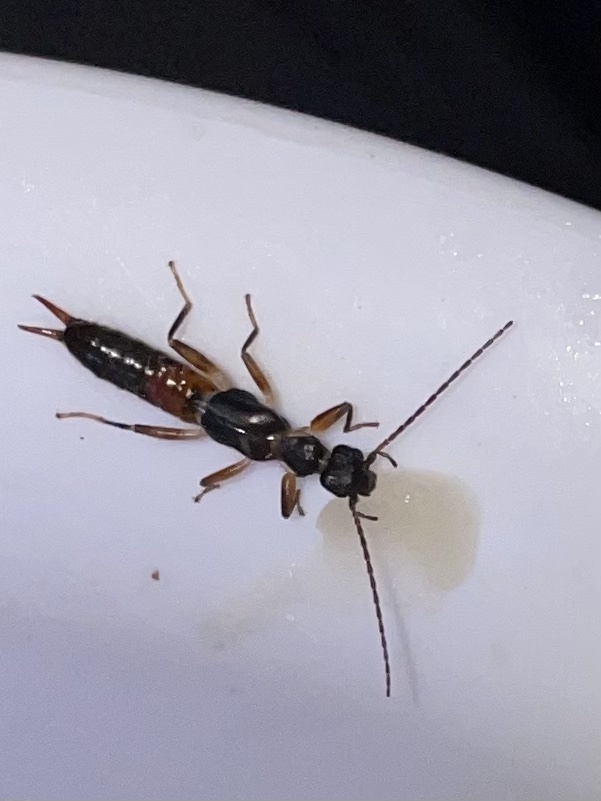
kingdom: Animalia
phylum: Arthropoda
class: Insecta
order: Dermaptera
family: Haplodiplatyidae
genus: Haplodiplatys
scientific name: Haplodiplatys severus
